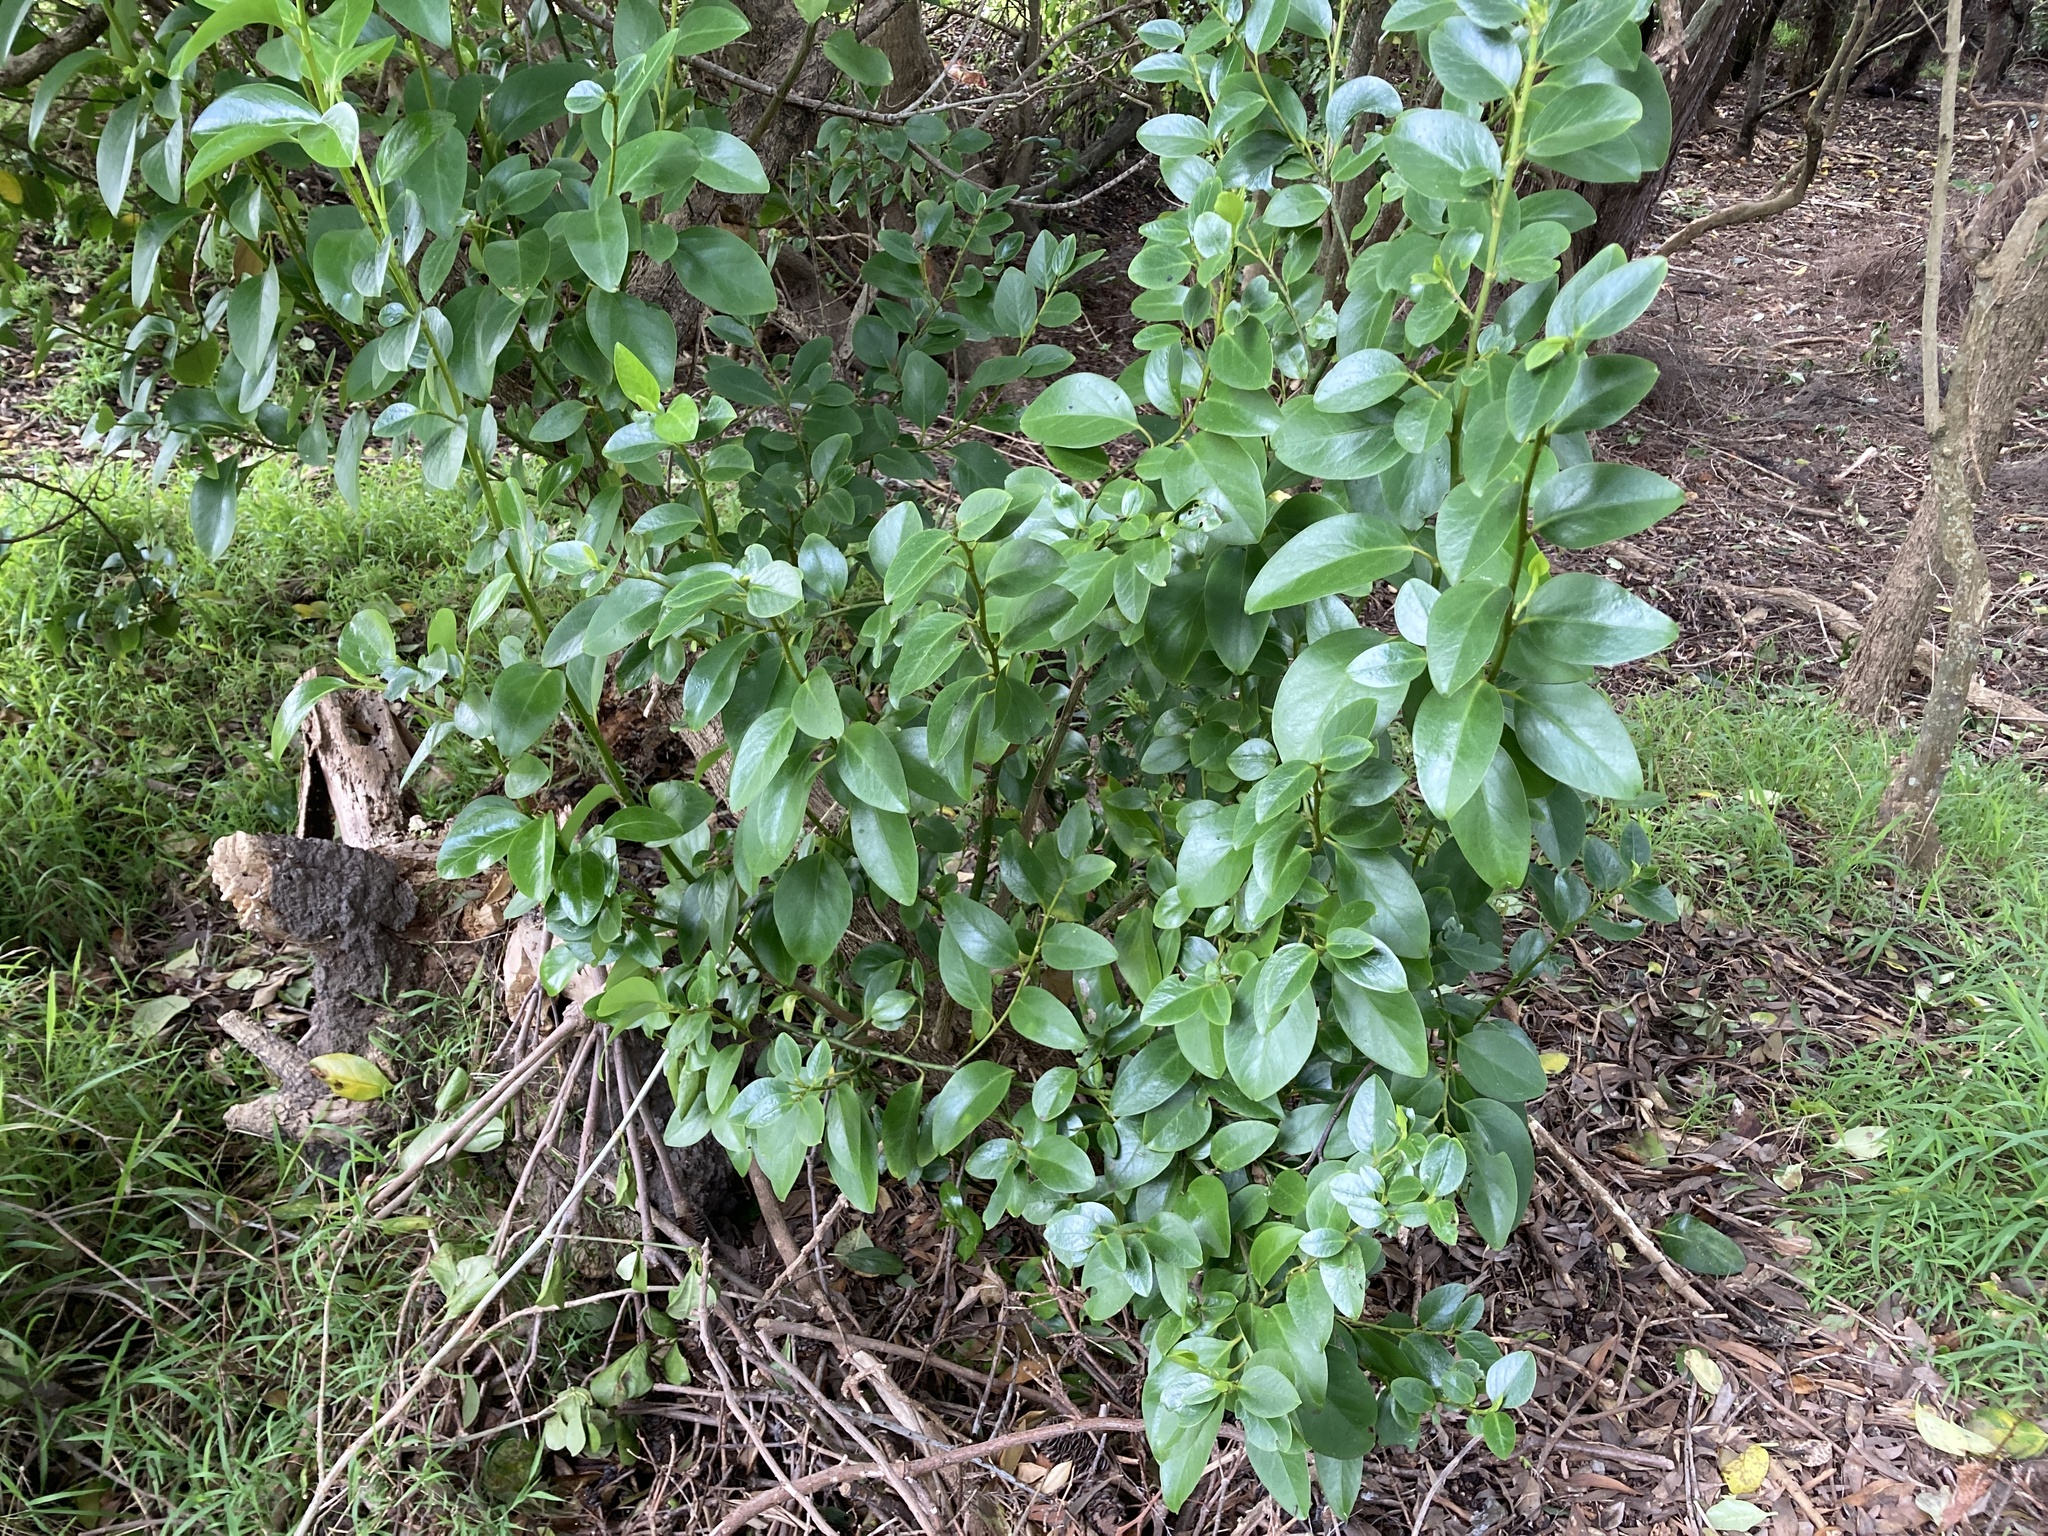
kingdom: Plantae
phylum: Tracheophyta
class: Magnoliopsida
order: Apiales
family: Griseliniaceae
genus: Griselinia
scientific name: Griselinia littoralis
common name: New zealand broadleaf
